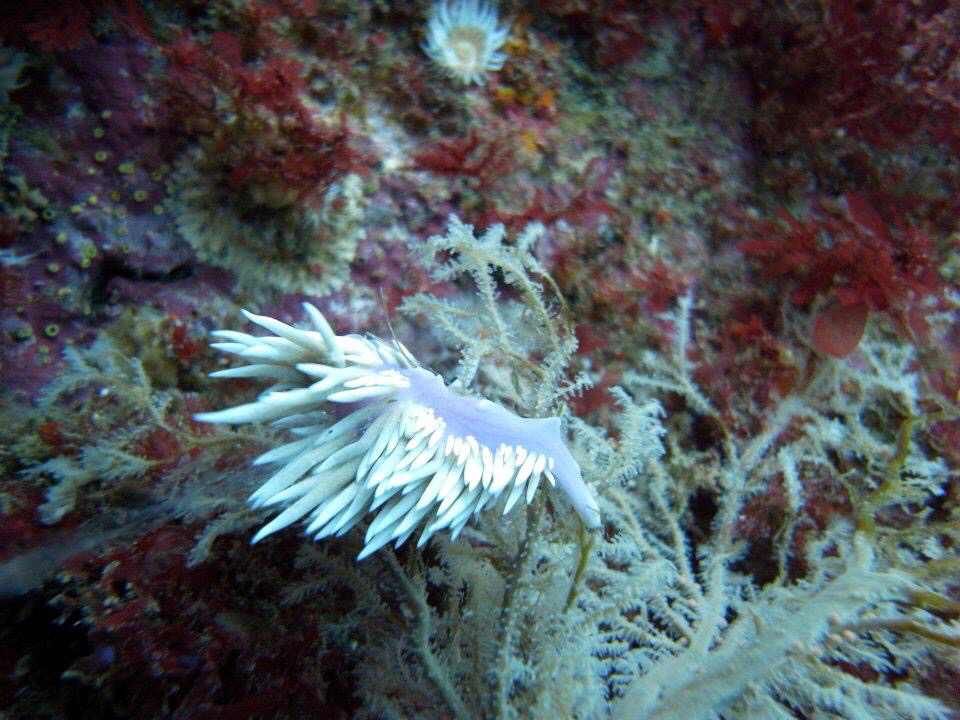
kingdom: Animalia
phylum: Mollusca
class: Gastropoda
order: Nudibranchia
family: Facelinidae
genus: Jason
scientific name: Jason mirabilis
